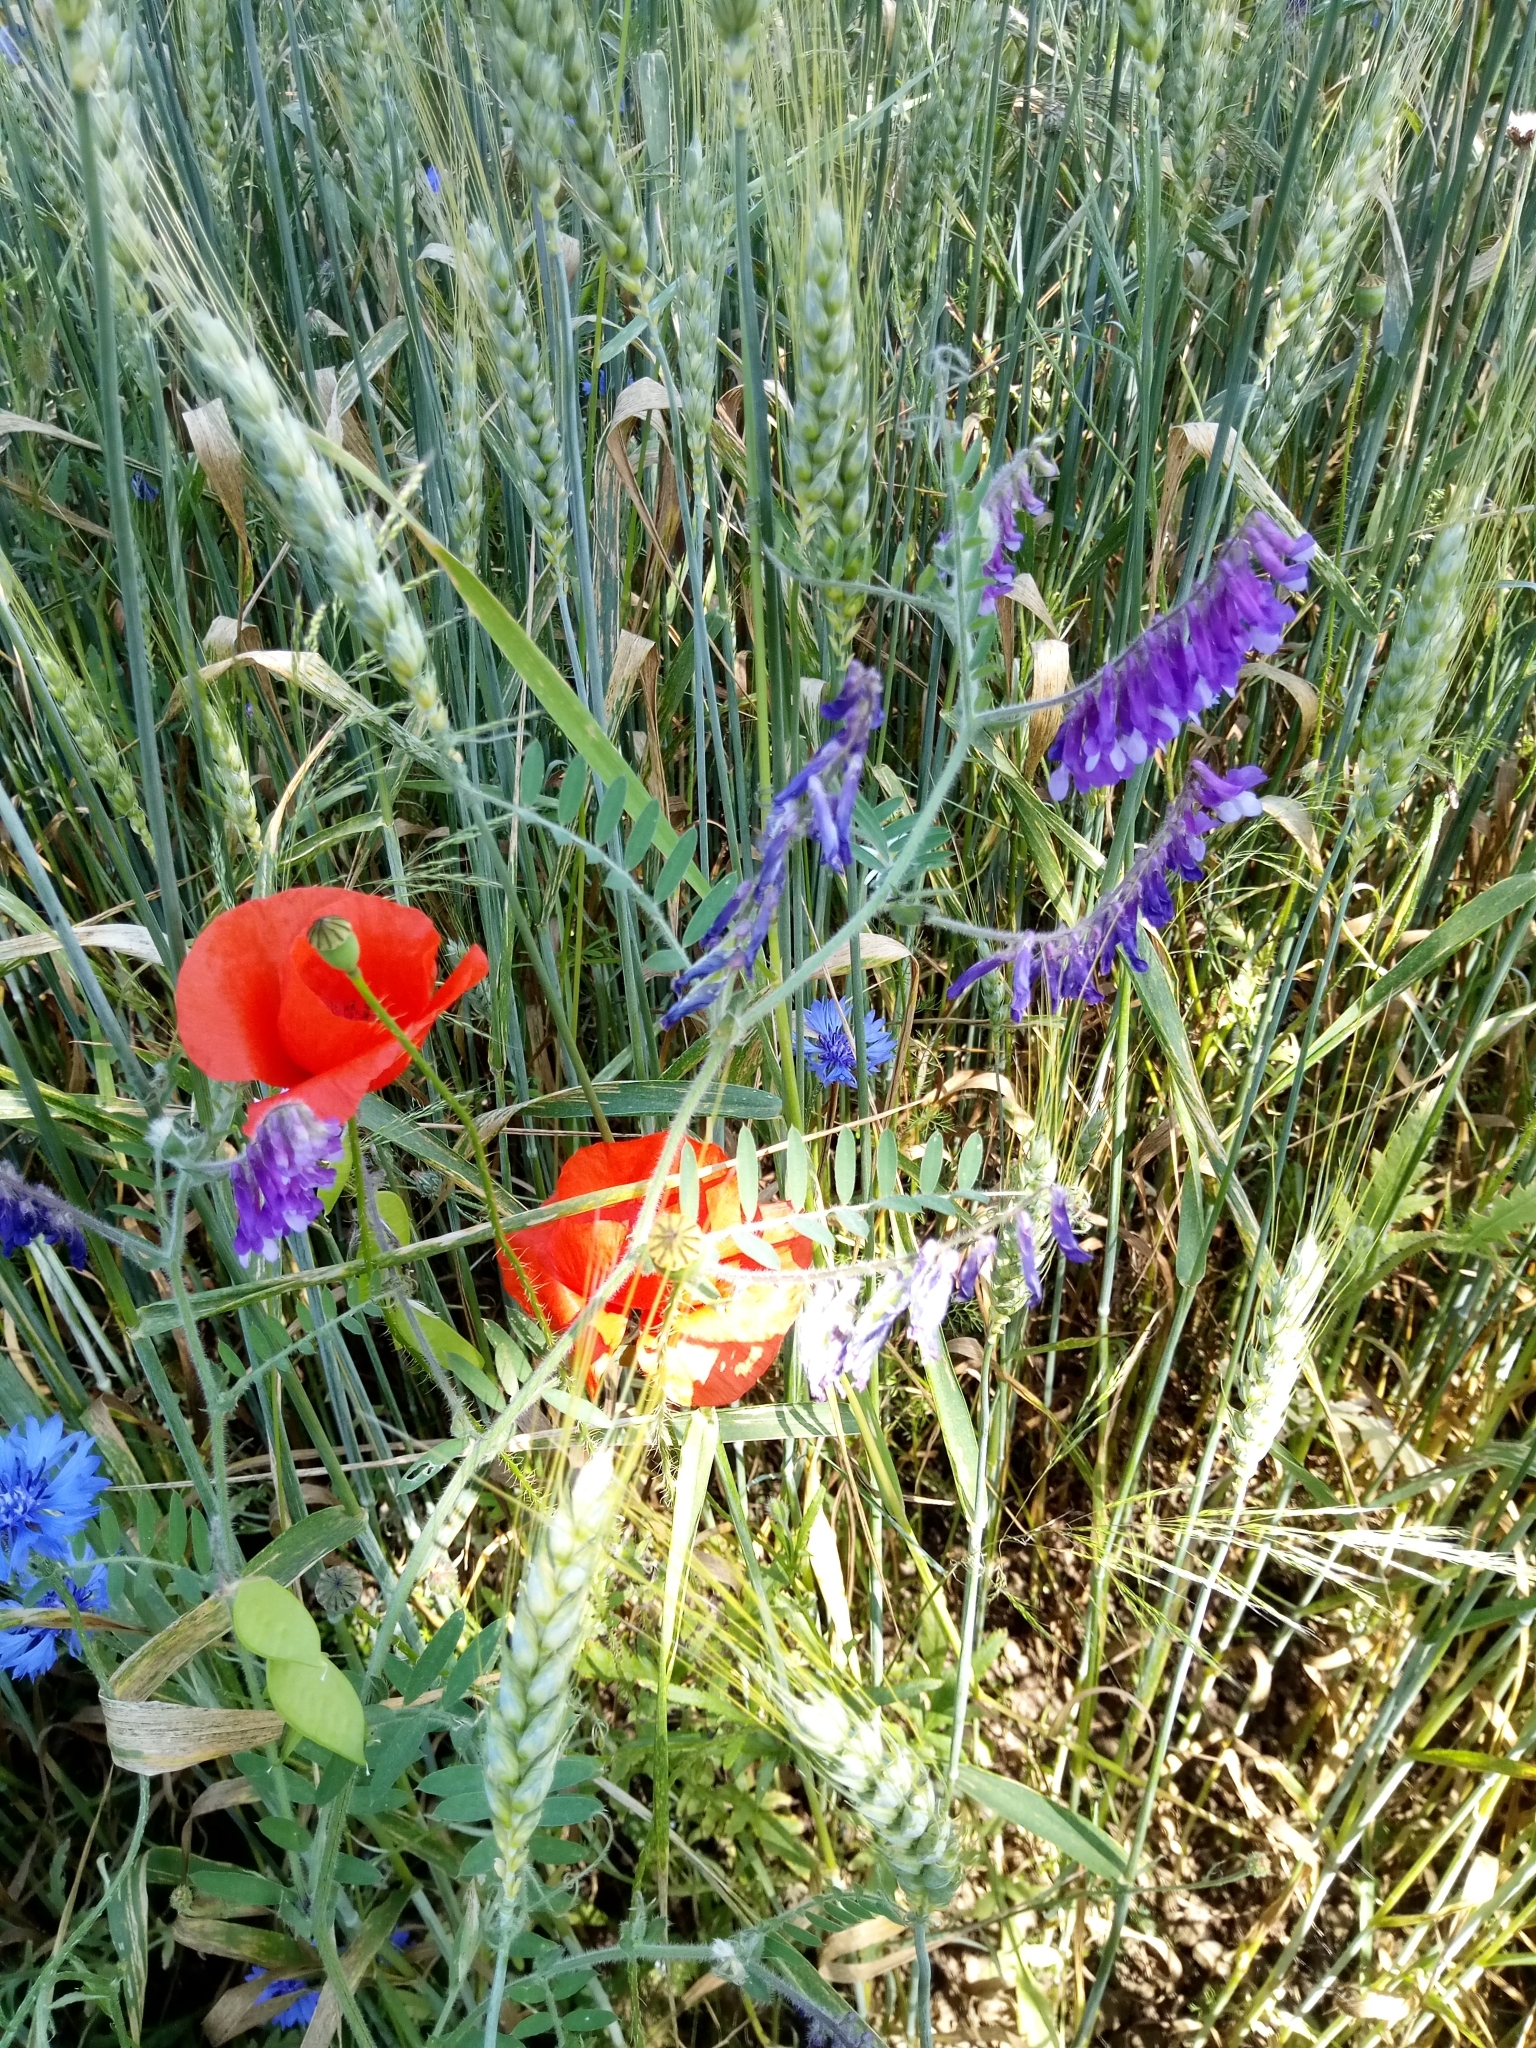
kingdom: Plantae
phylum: Tracheophyta
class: Magnoliopsida
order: Fabales
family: Fabaceae
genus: Vicia
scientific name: Vicia villosa
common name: Fodder vetch
